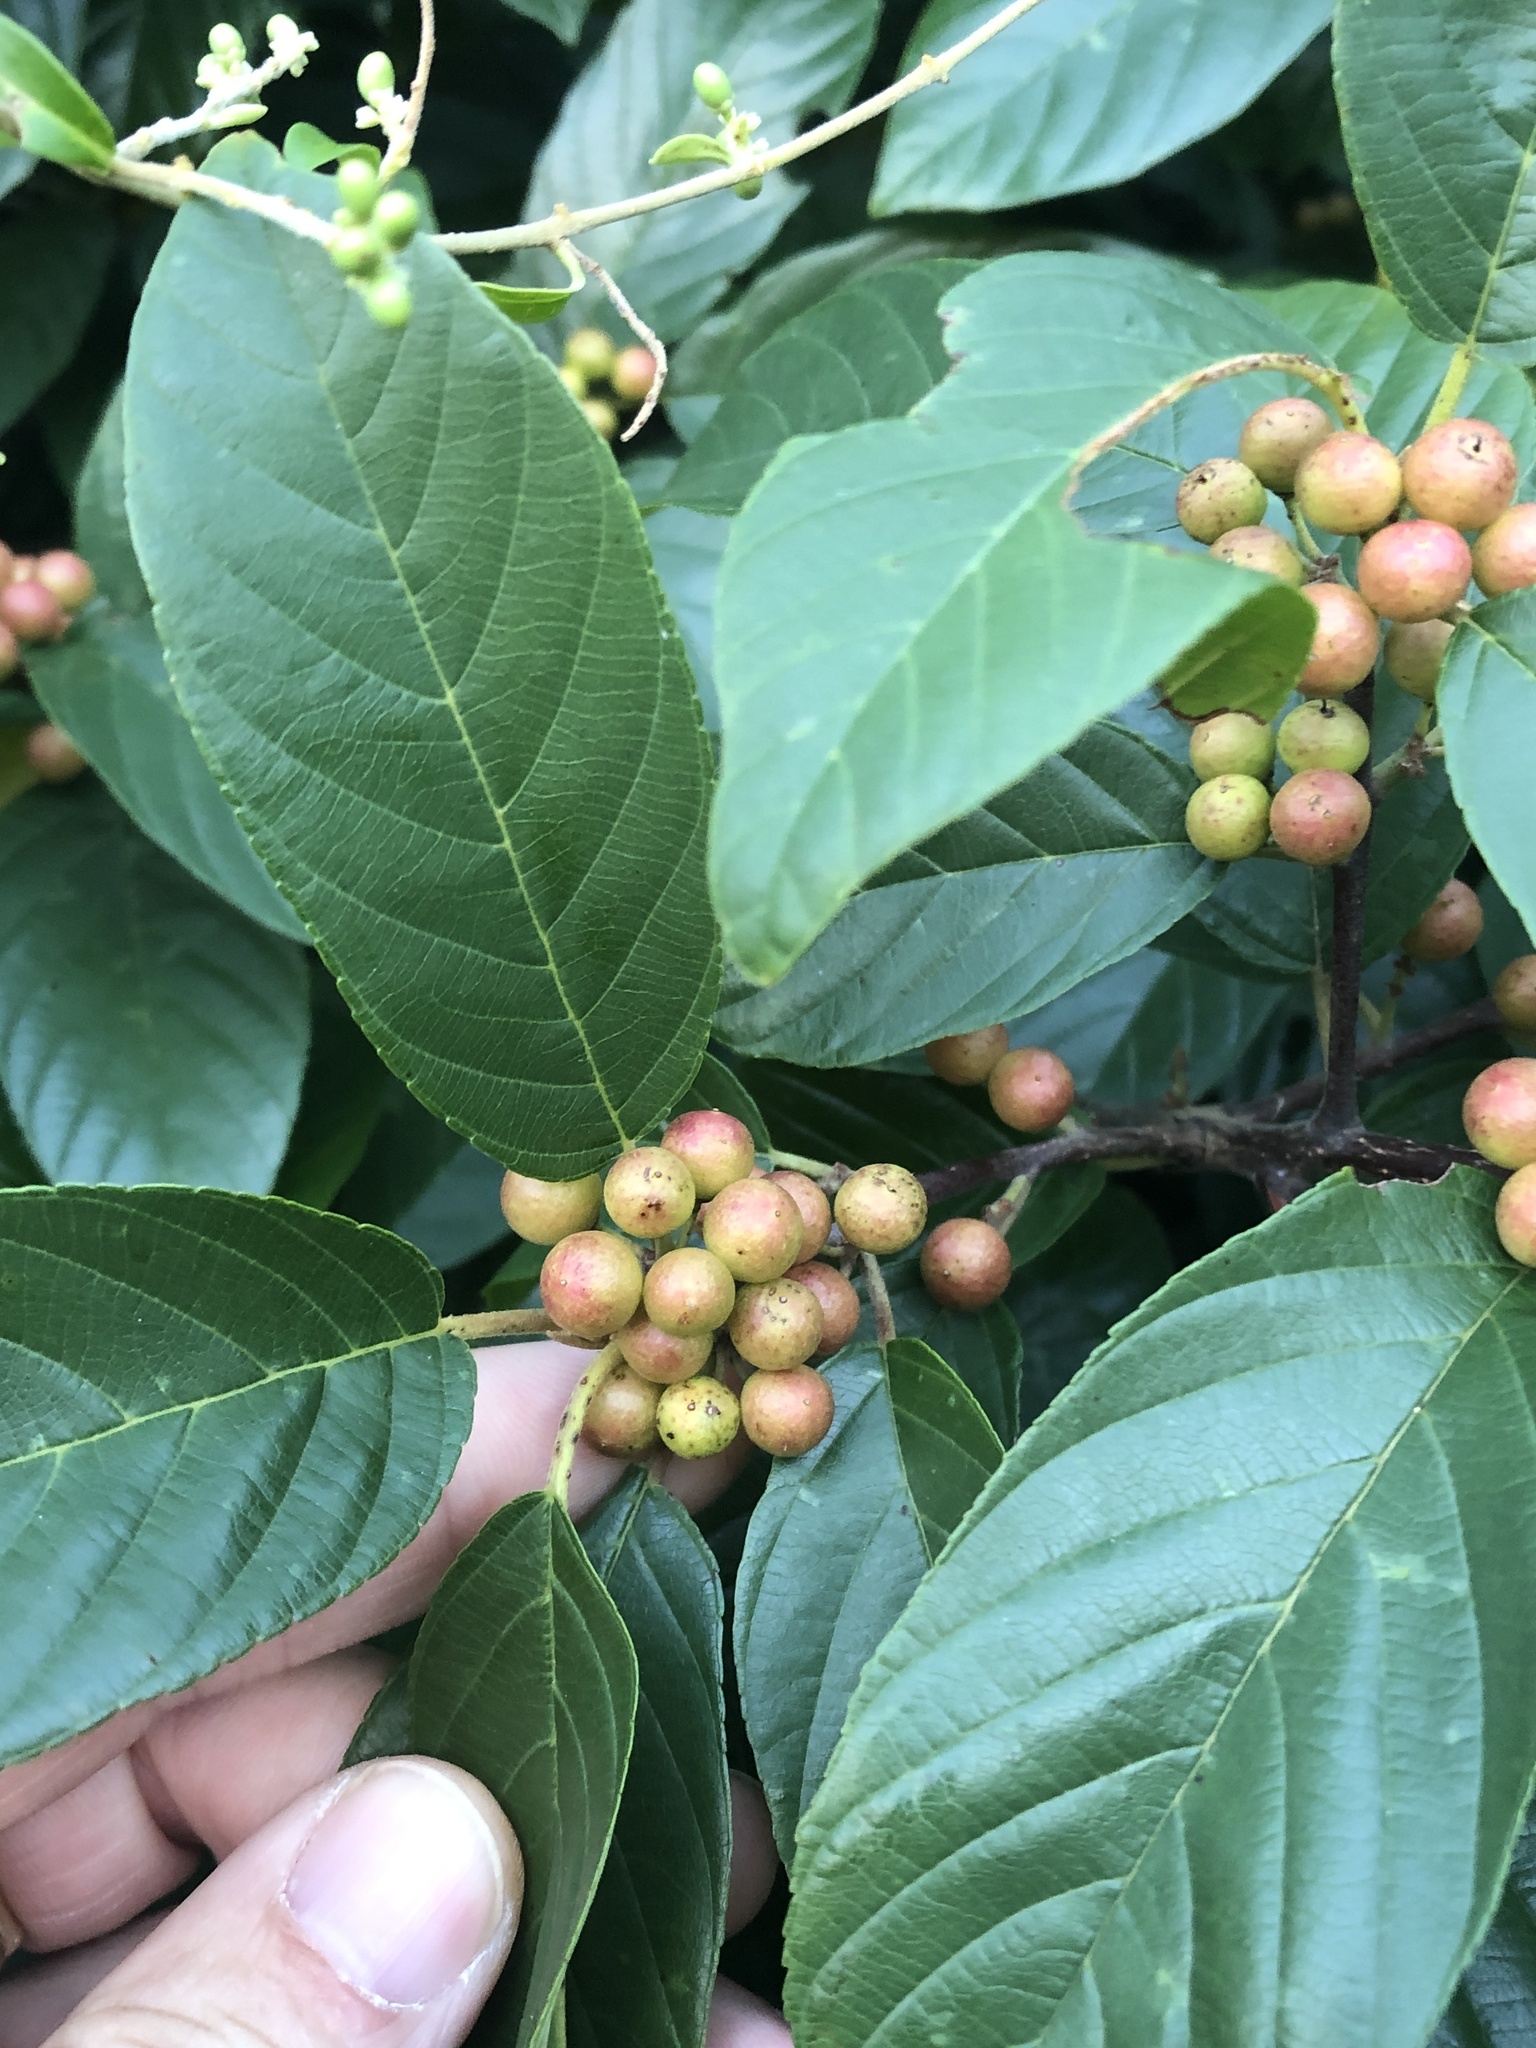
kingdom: Plantae
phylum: Tracheophyta
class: Magnoliopsida
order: Rosales
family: Rhamnaceae
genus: Frangula
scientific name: Frangula caroliniana
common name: Carolina buckthorn
